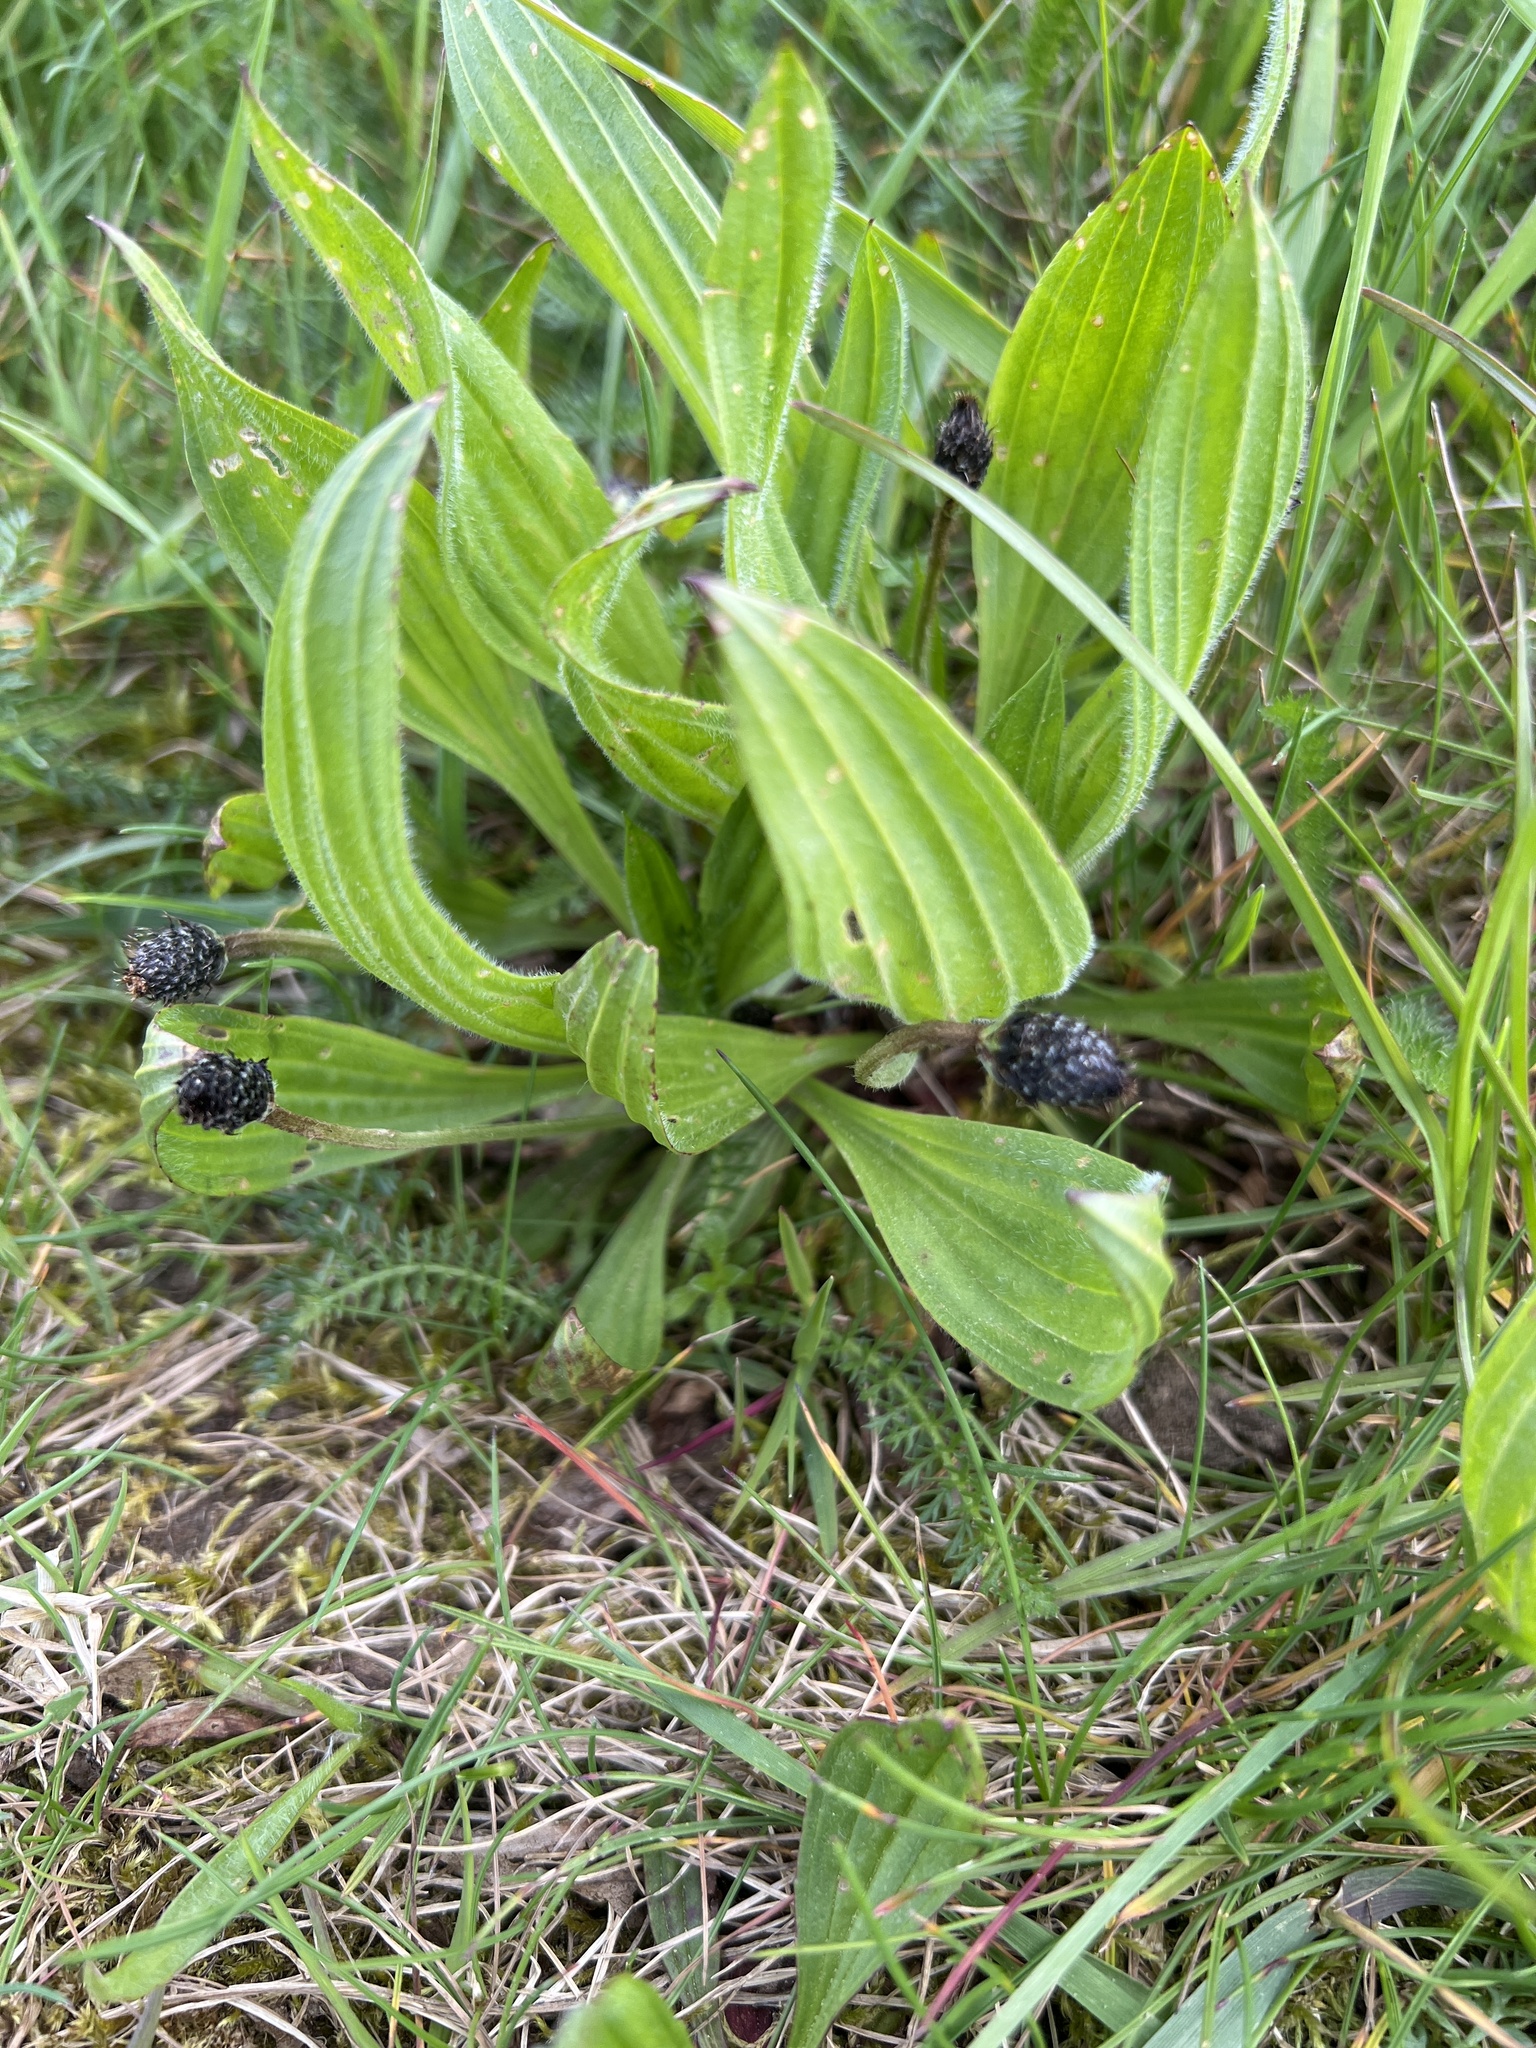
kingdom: Plantae
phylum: Tracheophyta
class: Magnoliopsida
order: Lamiales
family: Plantaginaceae
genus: Plantago
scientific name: Plantago lanceolata
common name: Ribwort plantain
